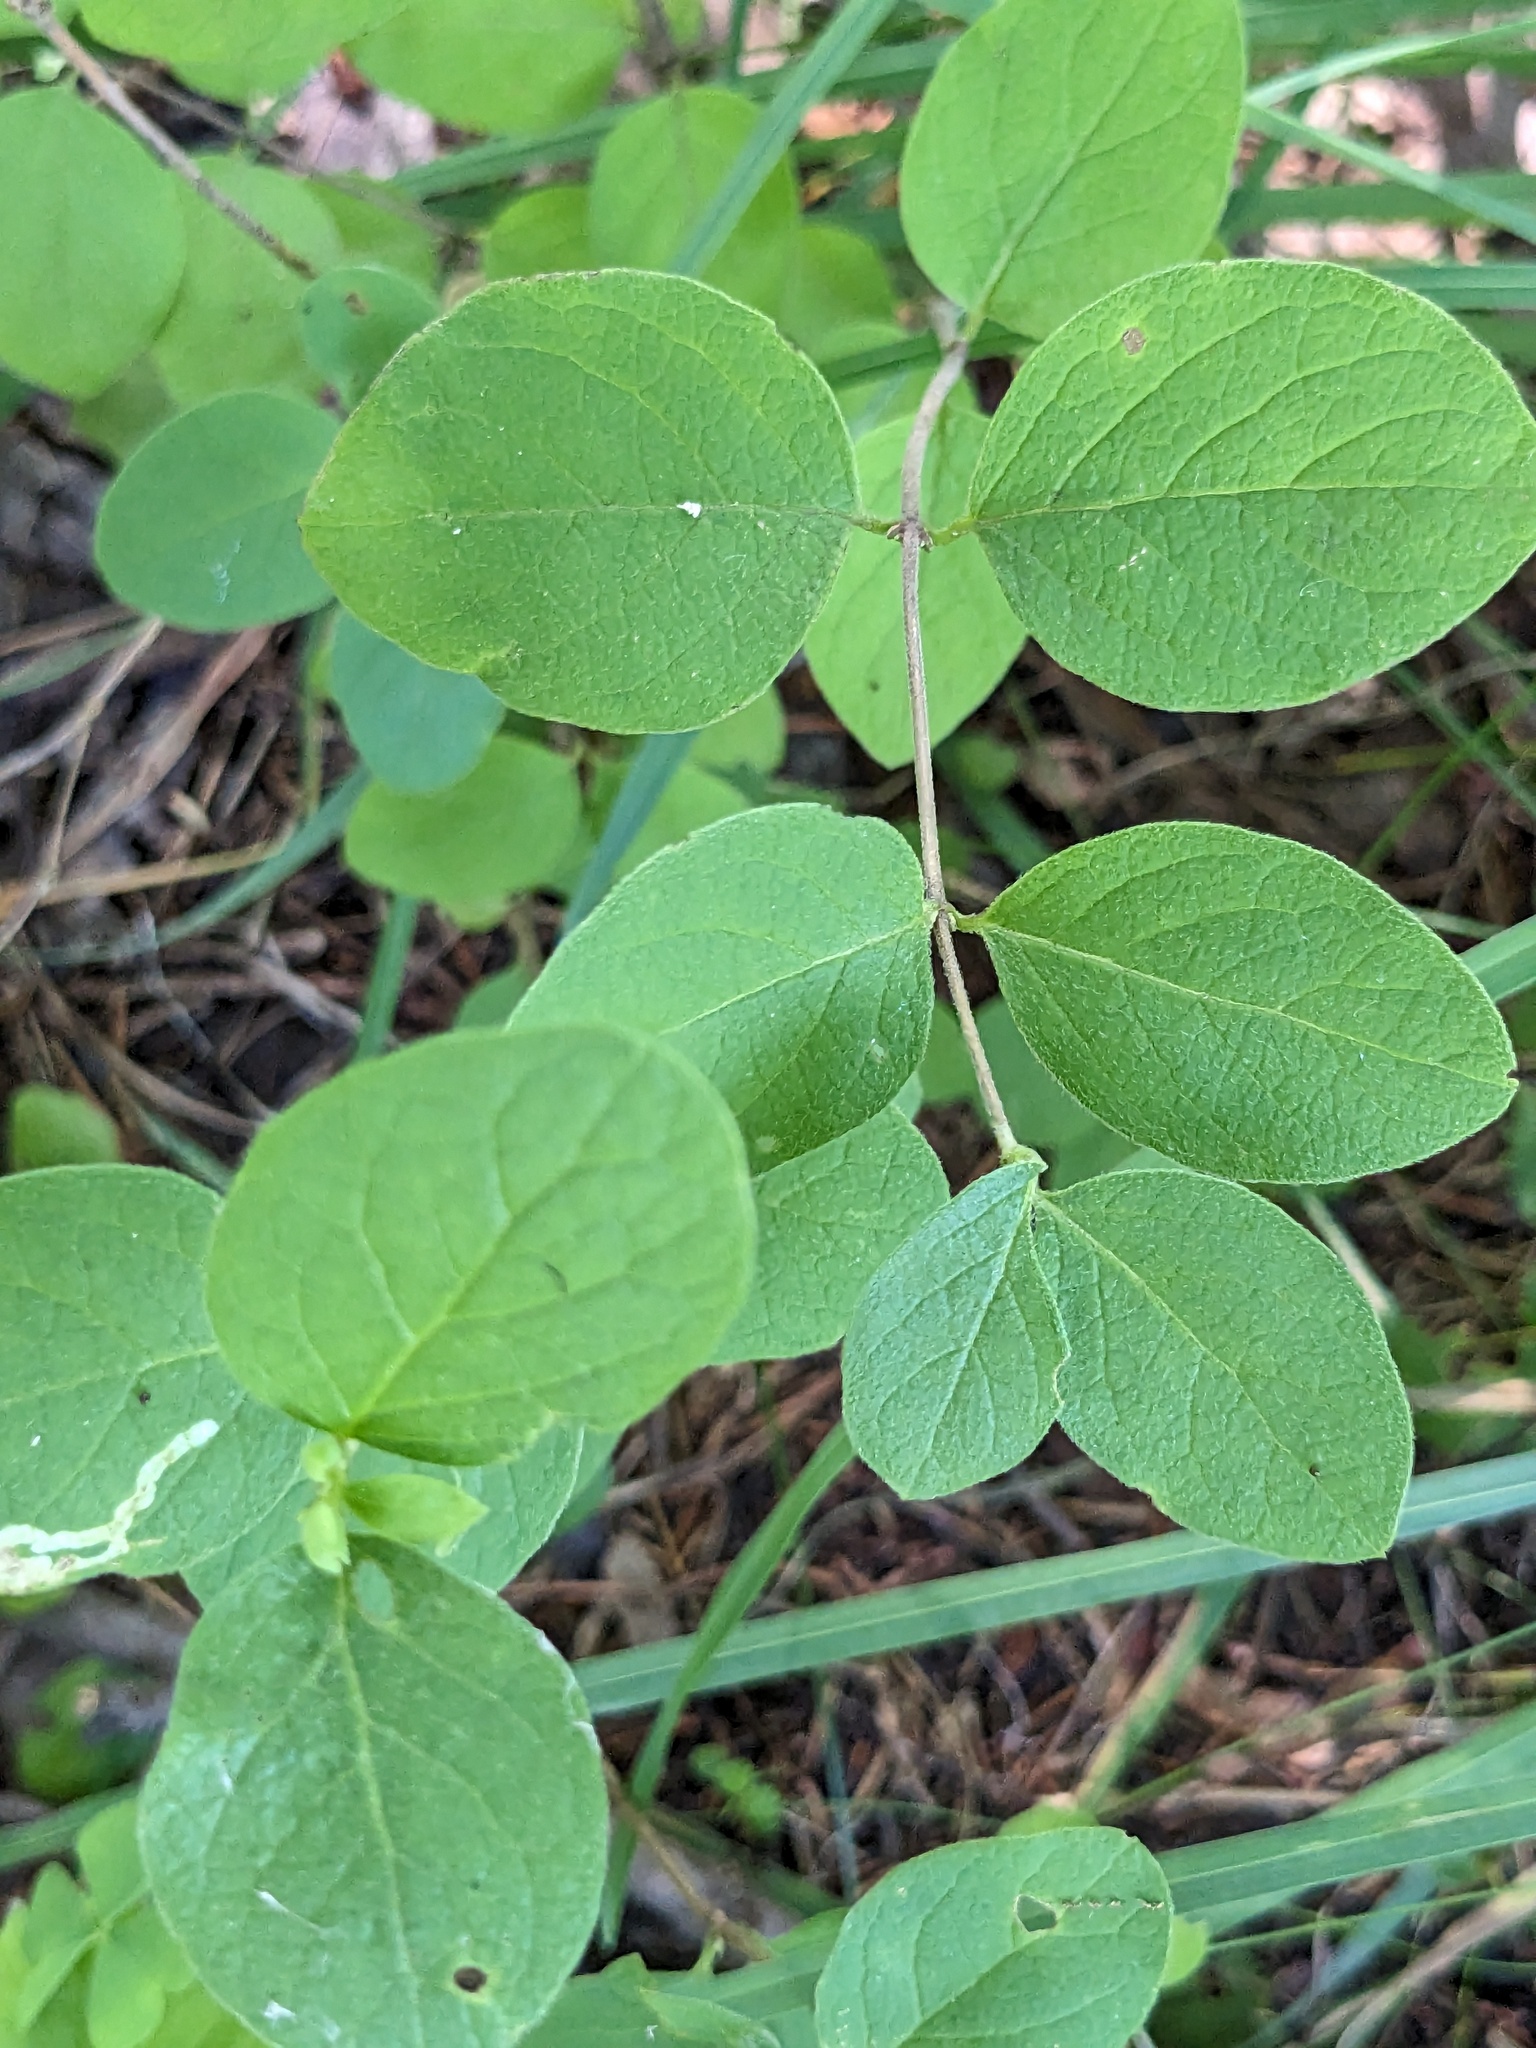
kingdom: Plantae
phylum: Tracheophyta
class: Magnoliopsida
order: Dipsacales
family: Caprifoliaceae
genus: Lonicera
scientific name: Lonicera
